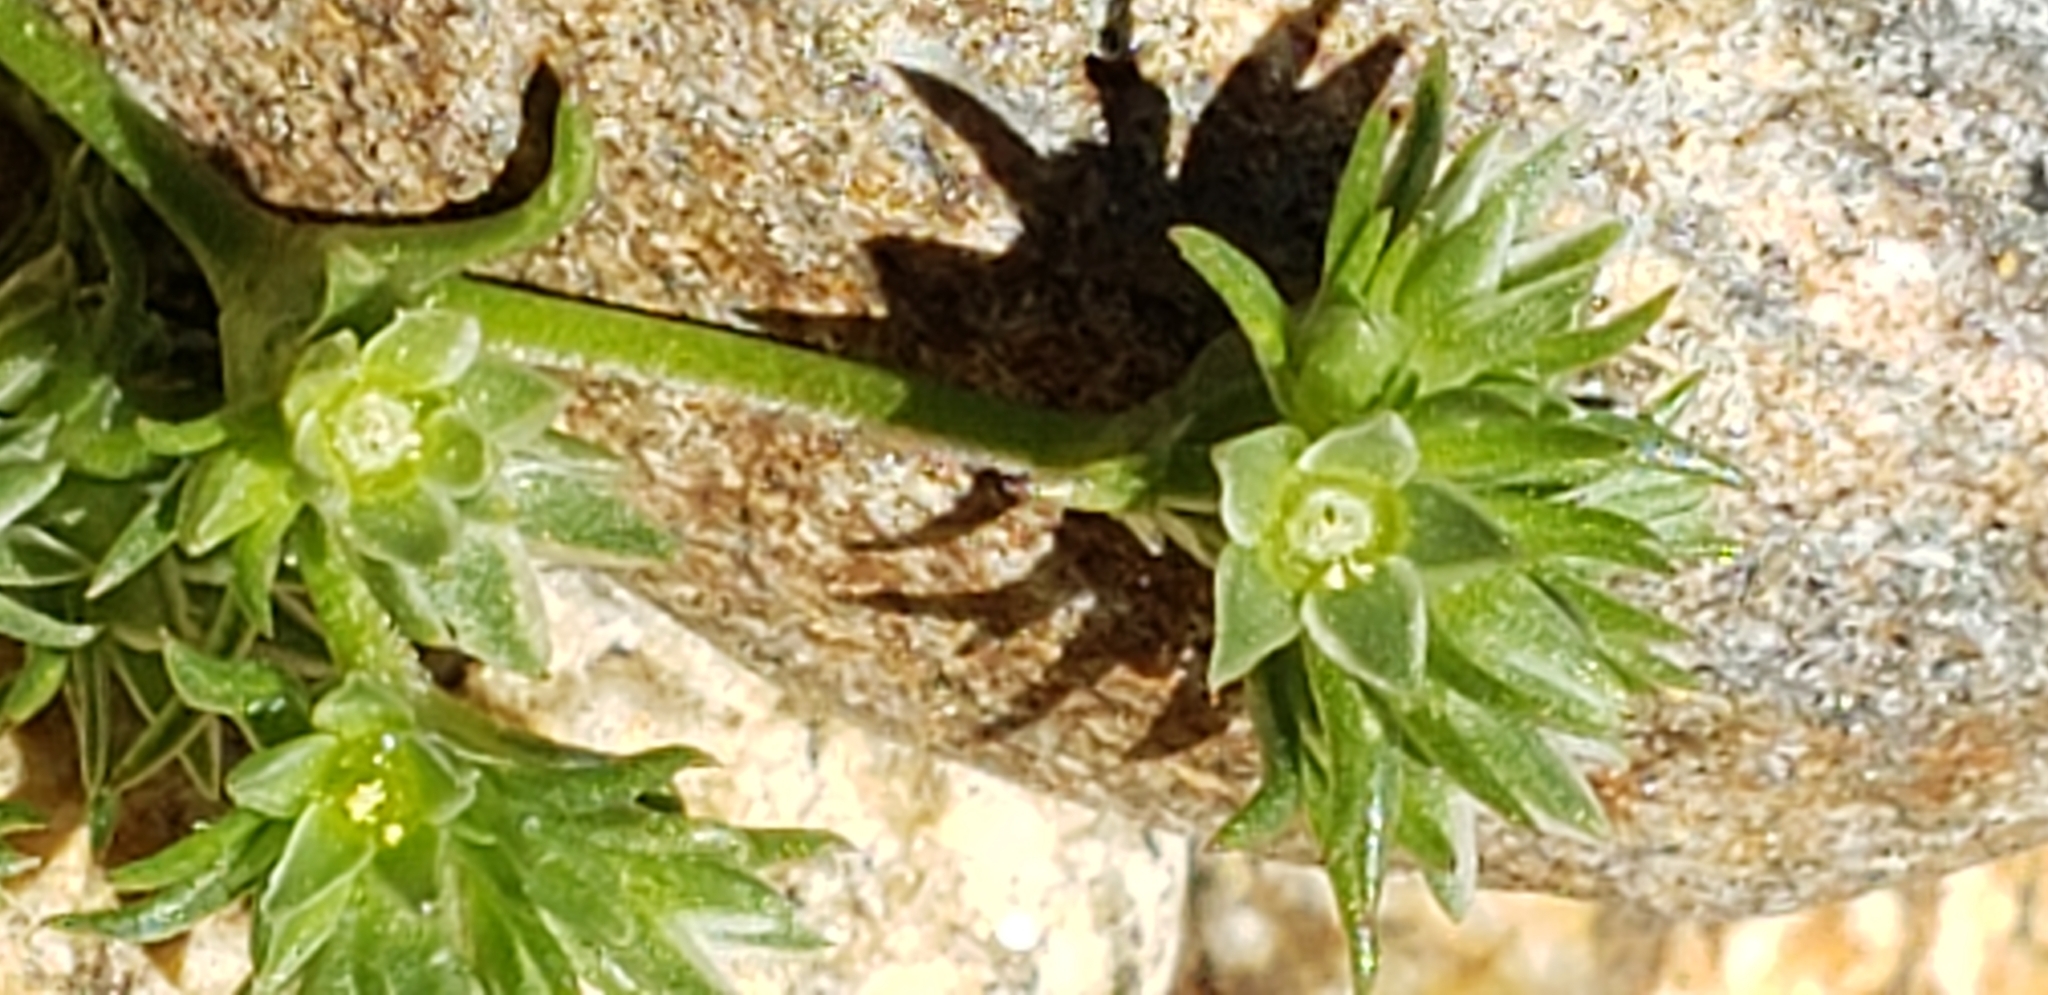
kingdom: Plantae
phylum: Tracheophyta
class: Magnoliopsida
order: Caryophyllales
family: Caryophyllaceae
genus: Scleranthus
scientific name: Scleranthus annuus
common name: Annual knawel
